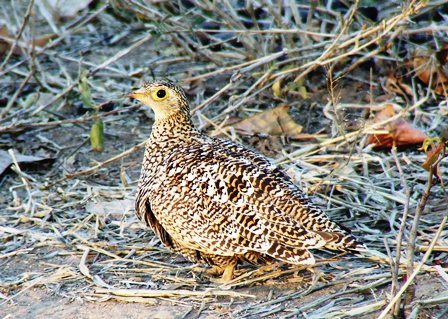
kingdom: Animalia
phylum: Chordata
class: Aves
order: Pteroclidiformes
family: Pteroclididae
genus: Pterocles
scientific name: Pterocles bicinctus
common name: Double-banded sandgrouse
